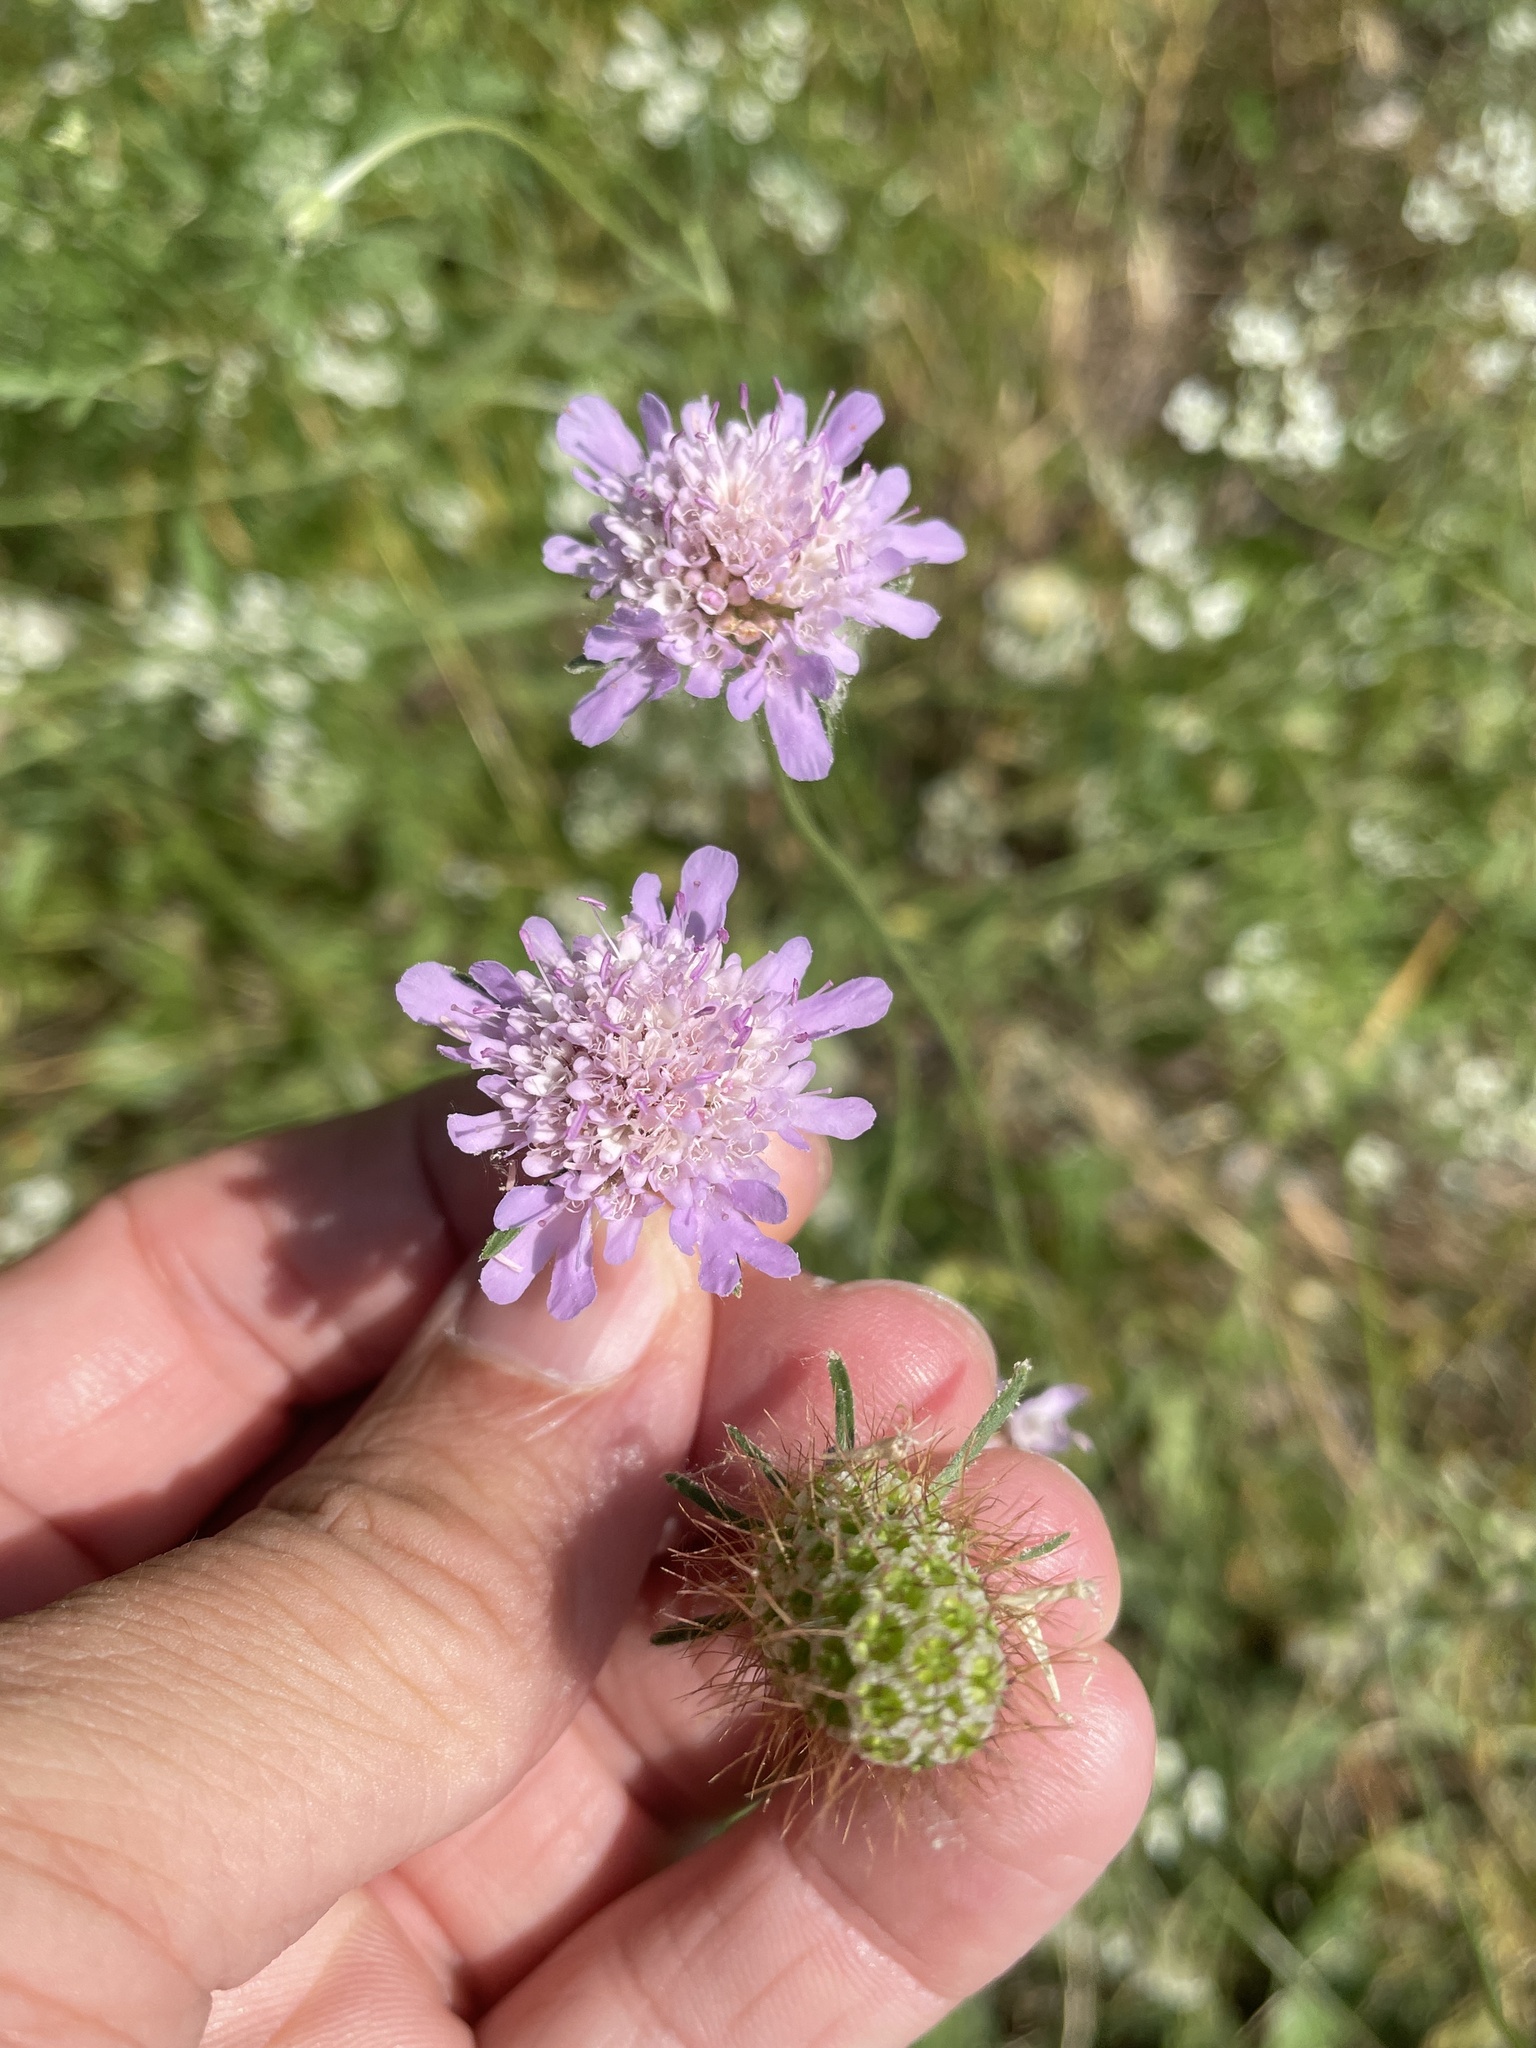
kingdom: Plantae
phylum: Tracheophyta
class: Magnoliopsida
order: Dipsacales
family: Caprifoliaceae
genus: Sixalix
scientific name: Sixalix atropurpurea
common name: Sweet scabious
